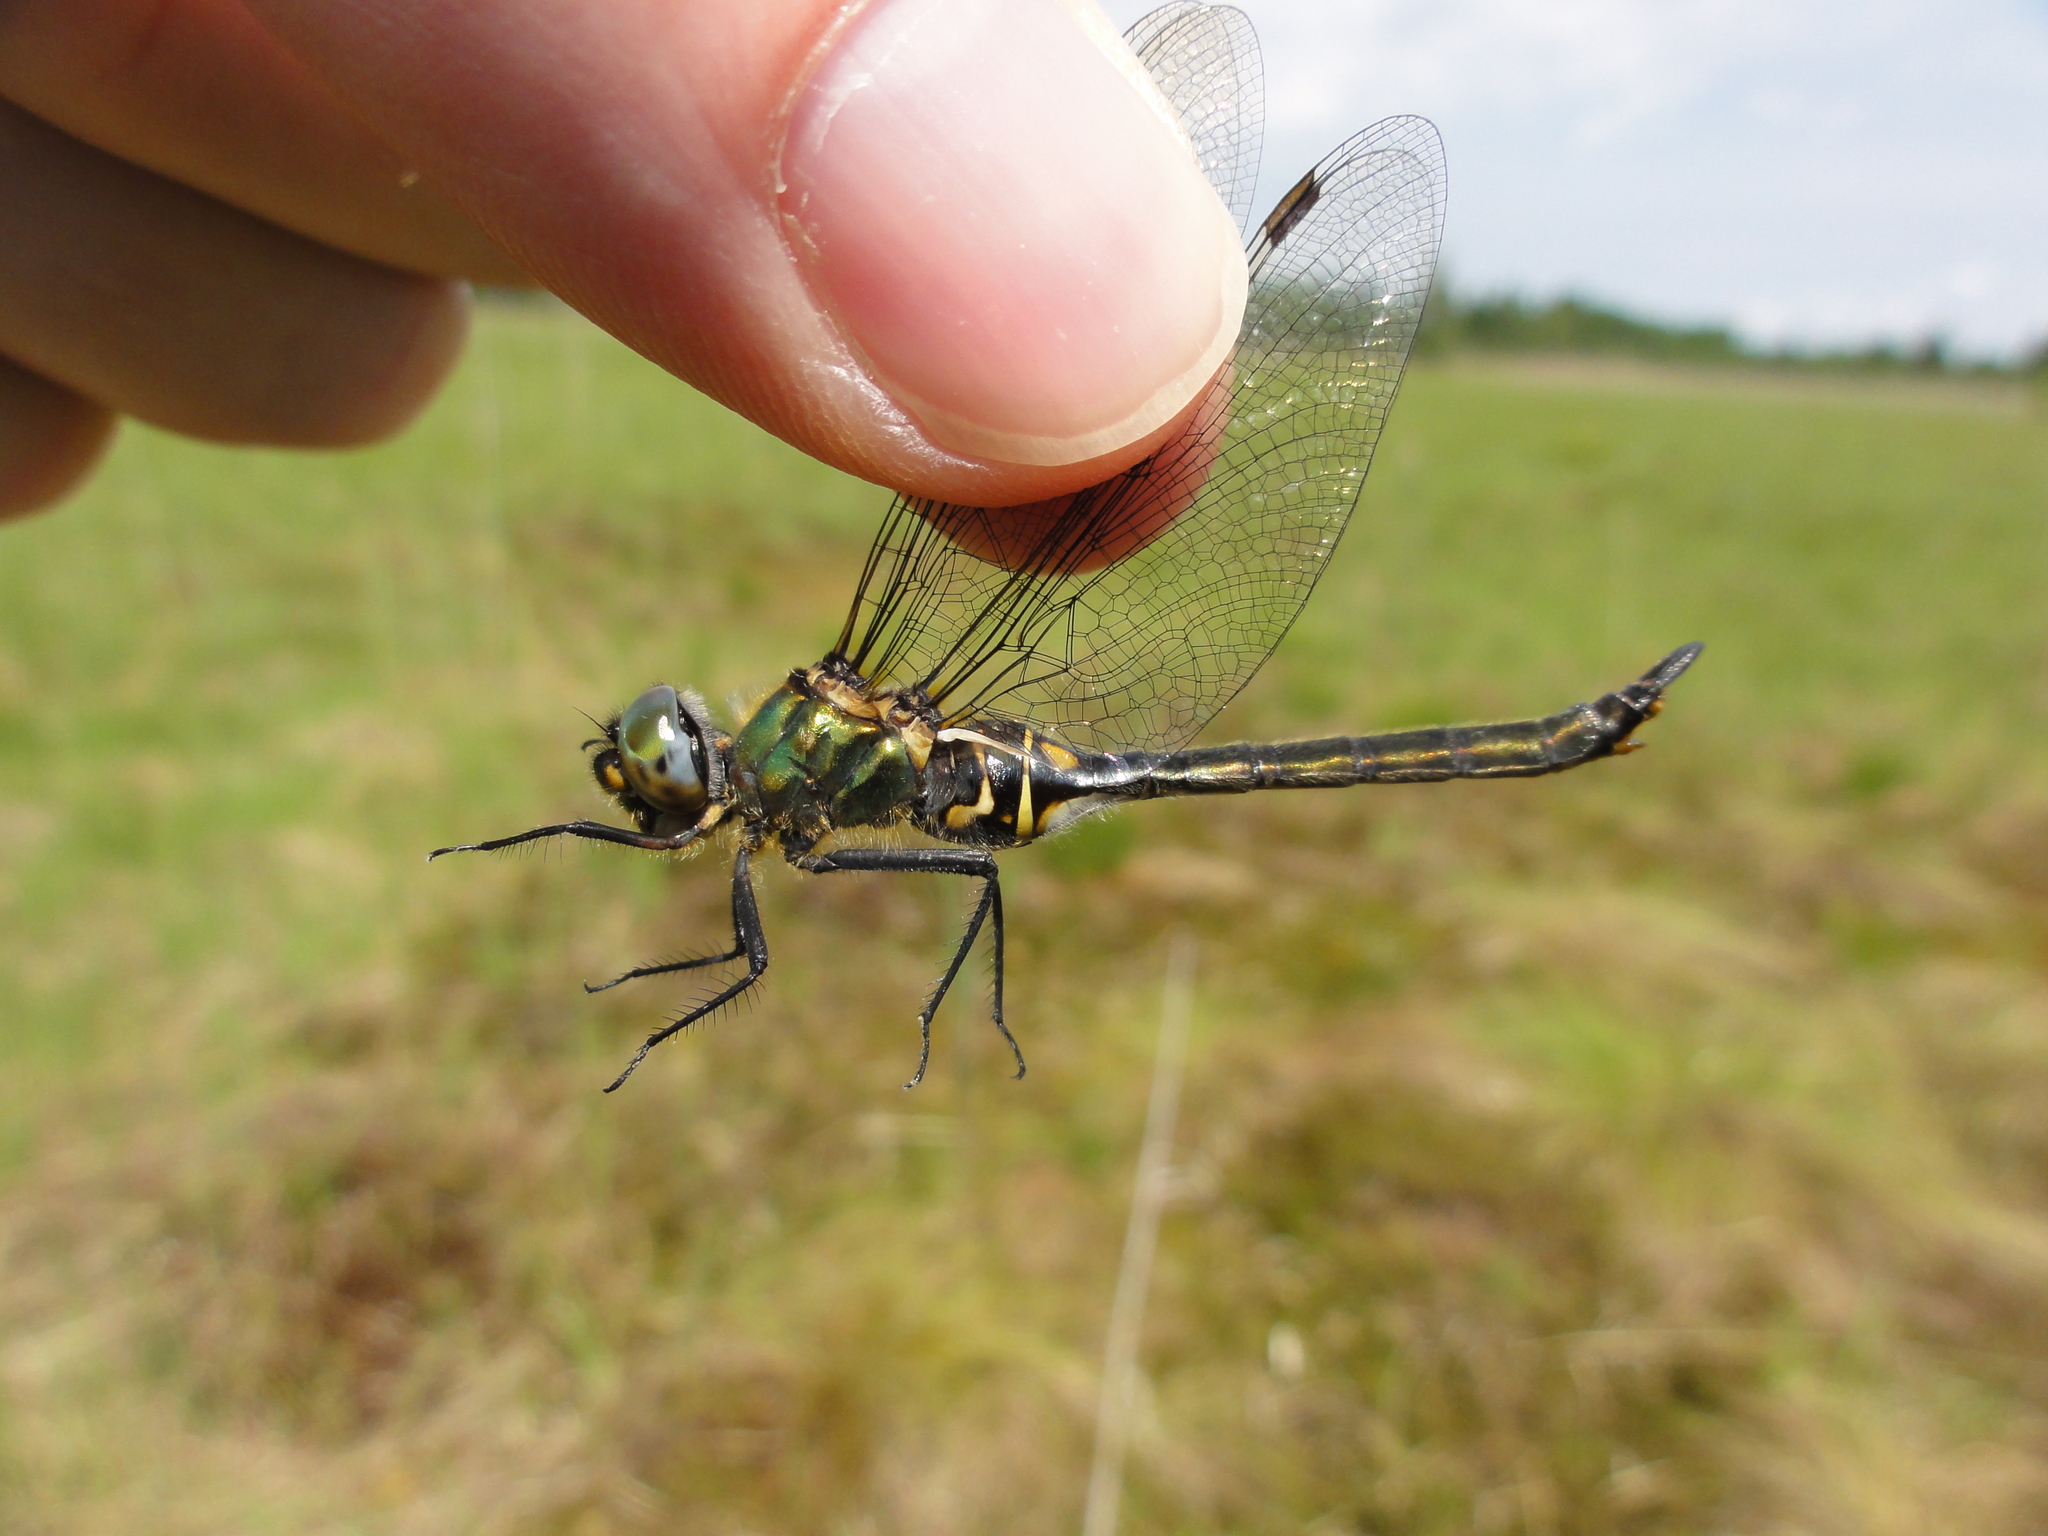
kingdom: Animalia
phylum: Arthropoda
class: Insecta
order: Odonata
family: Corduliidae
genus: Somatochlora
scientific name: Somatochlora arctica
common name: Northern emerald
